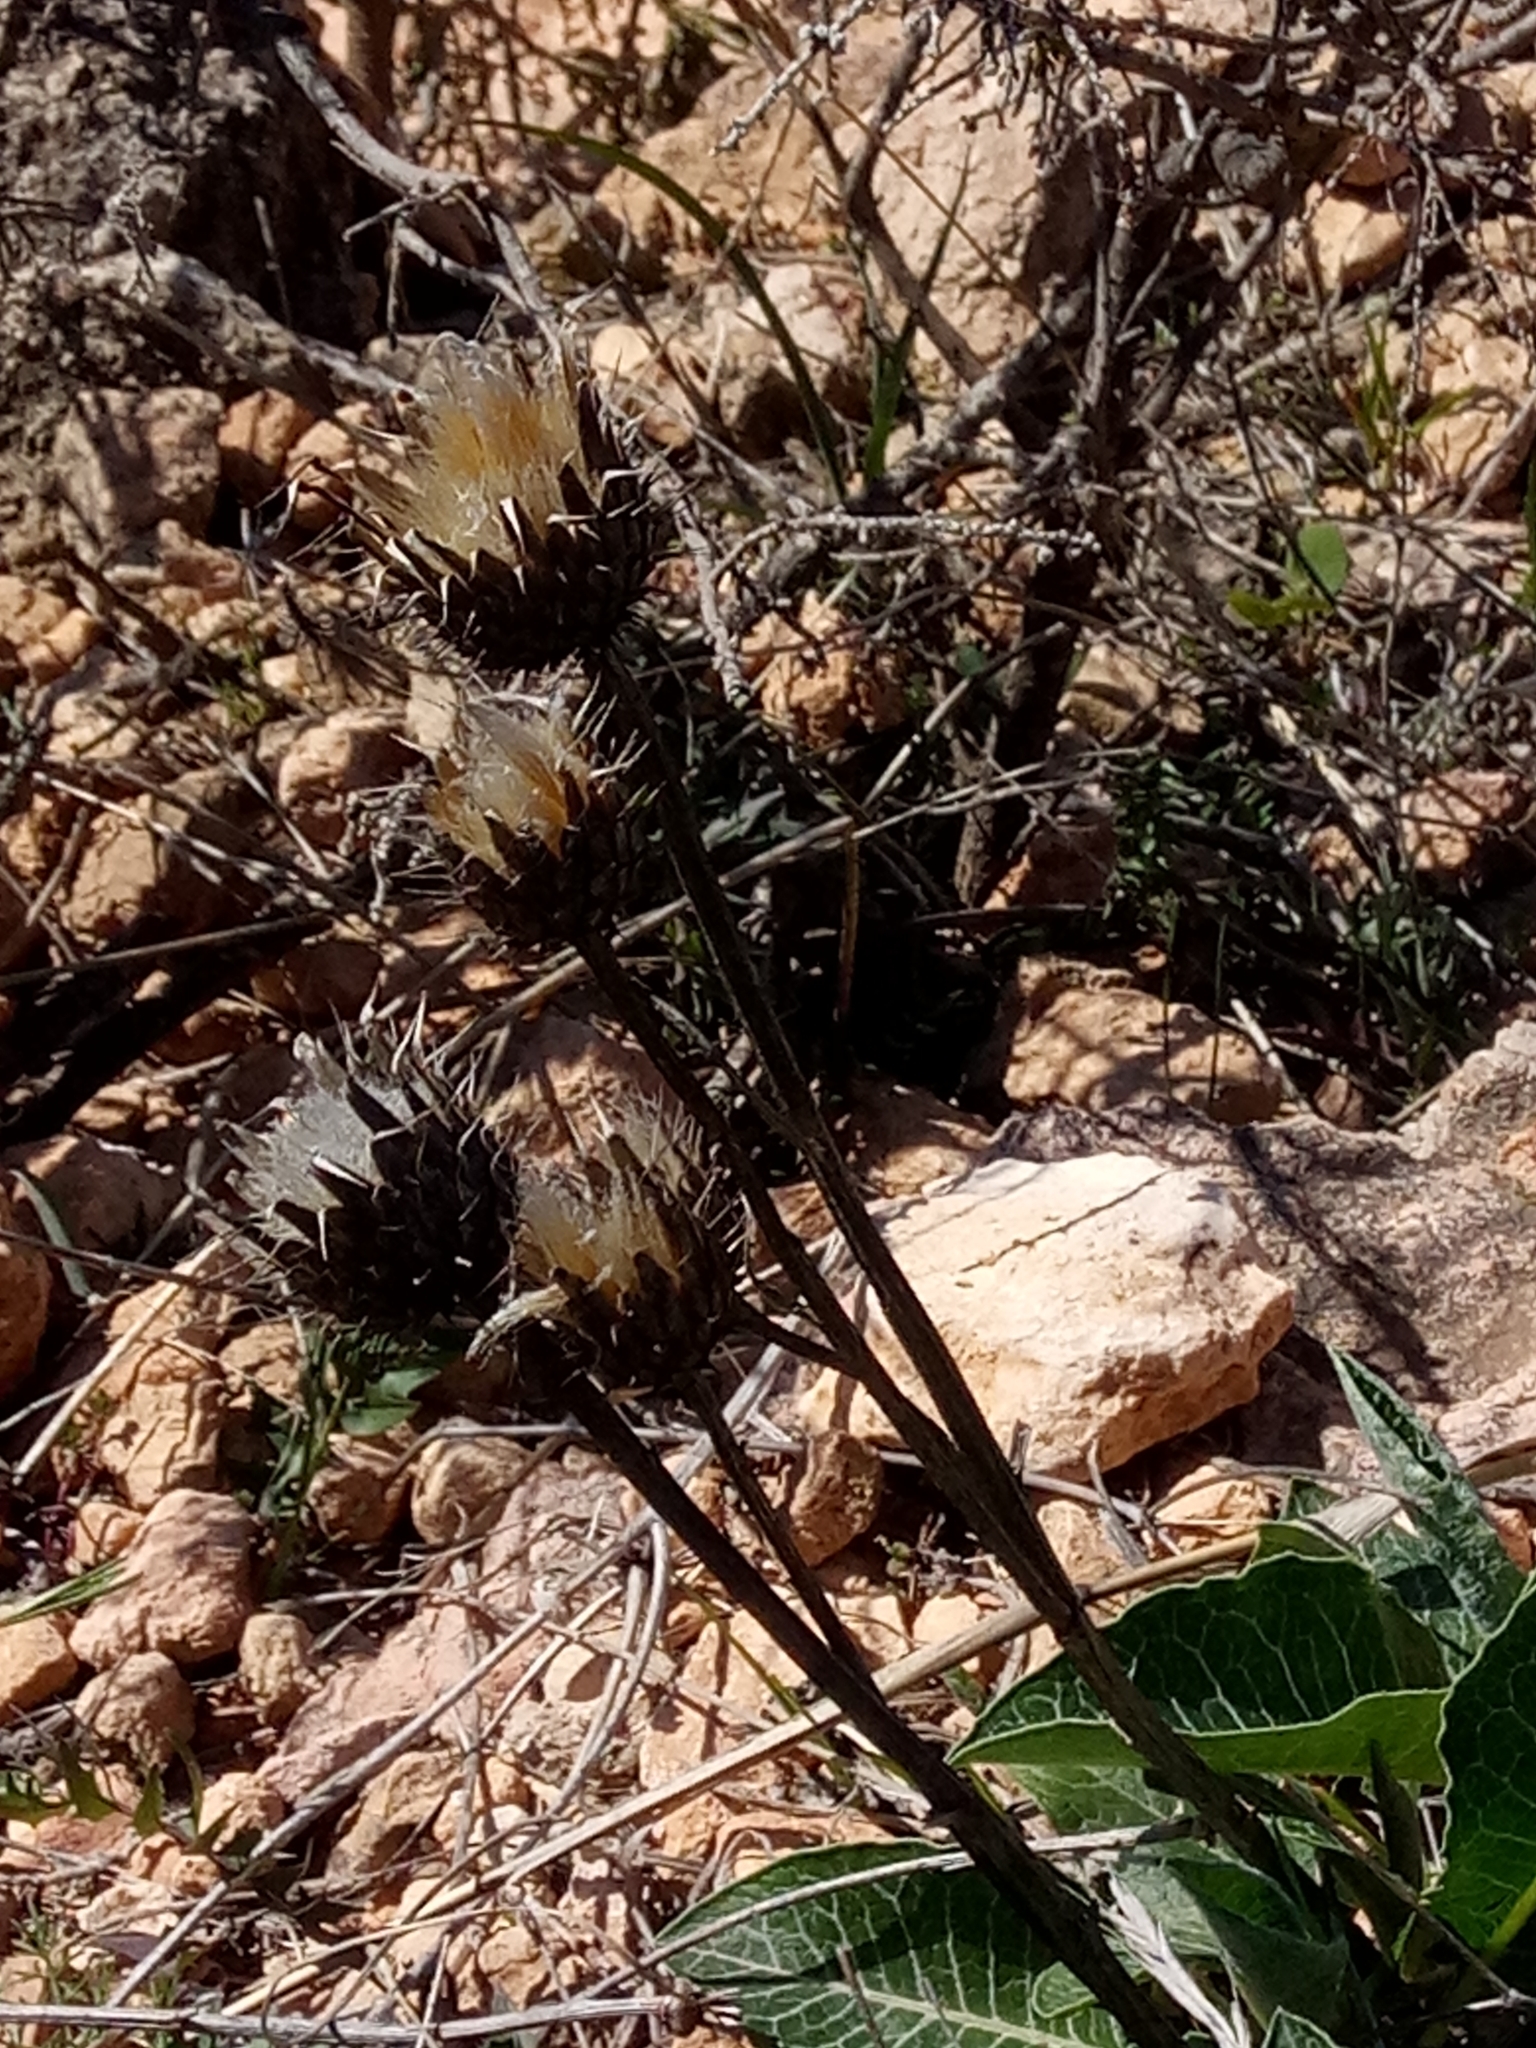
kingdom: Plantae
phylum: Tracheophyta
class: Magnoliopsida
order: Asterales
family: Asteraceae
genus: Klasea
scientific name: Klasea pinnatifida
